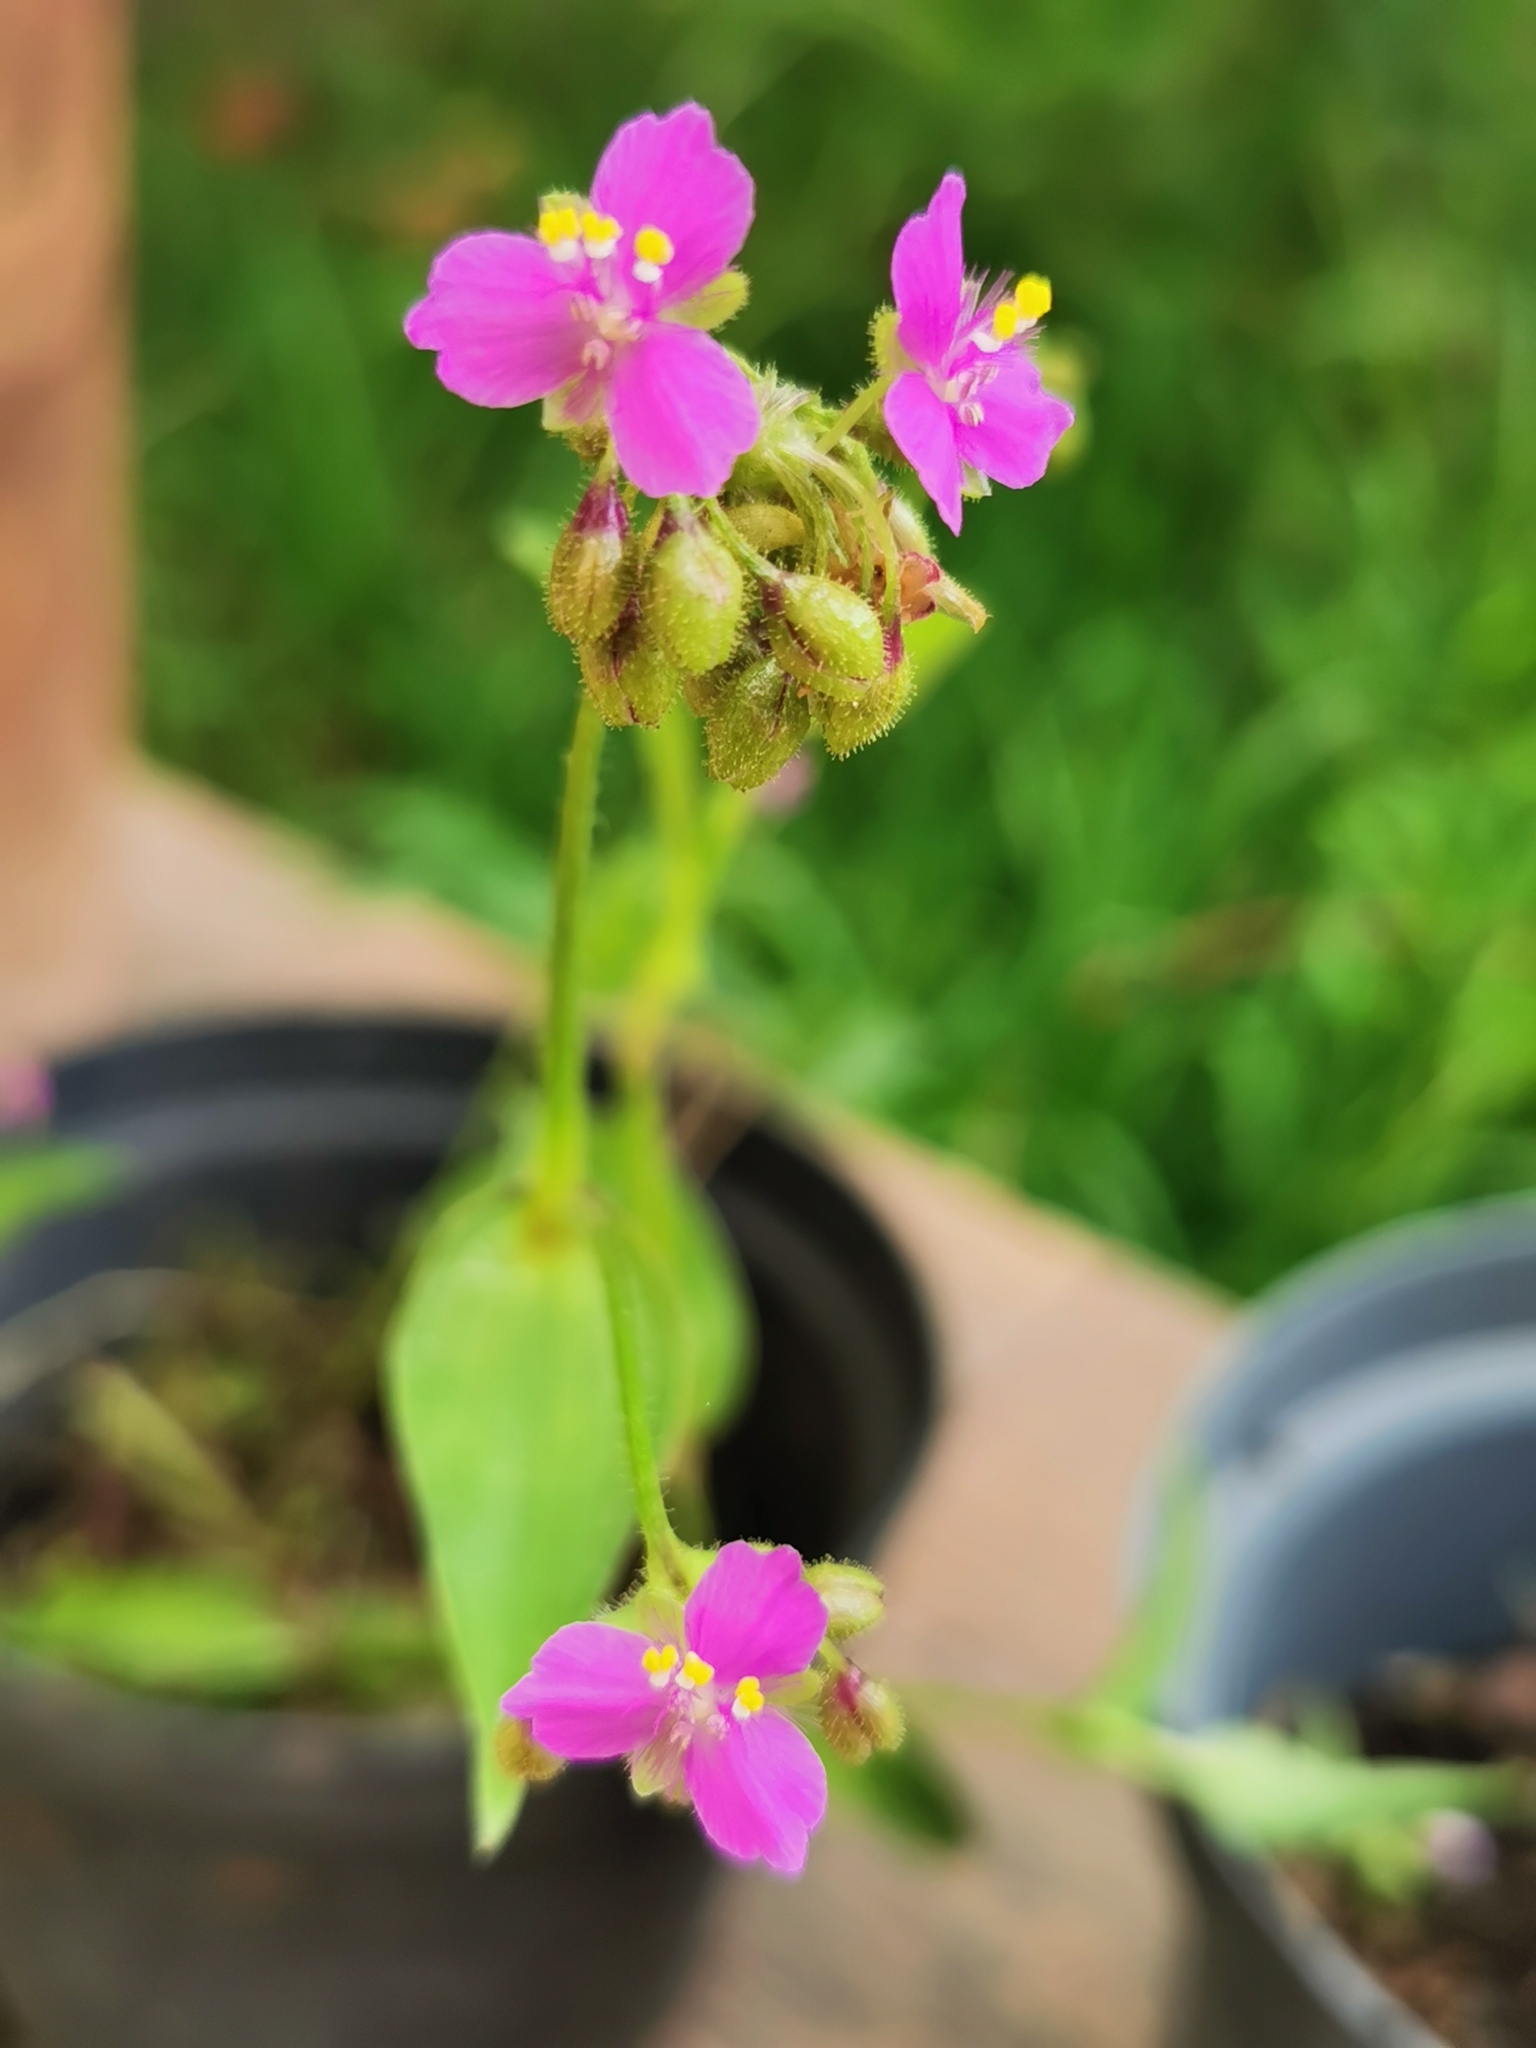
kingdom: Plantae
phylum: Tracheophyta
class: Liliopsida
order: Commelinales
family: Commelinaceae
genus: Callisia
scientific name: Callisia disgrega
